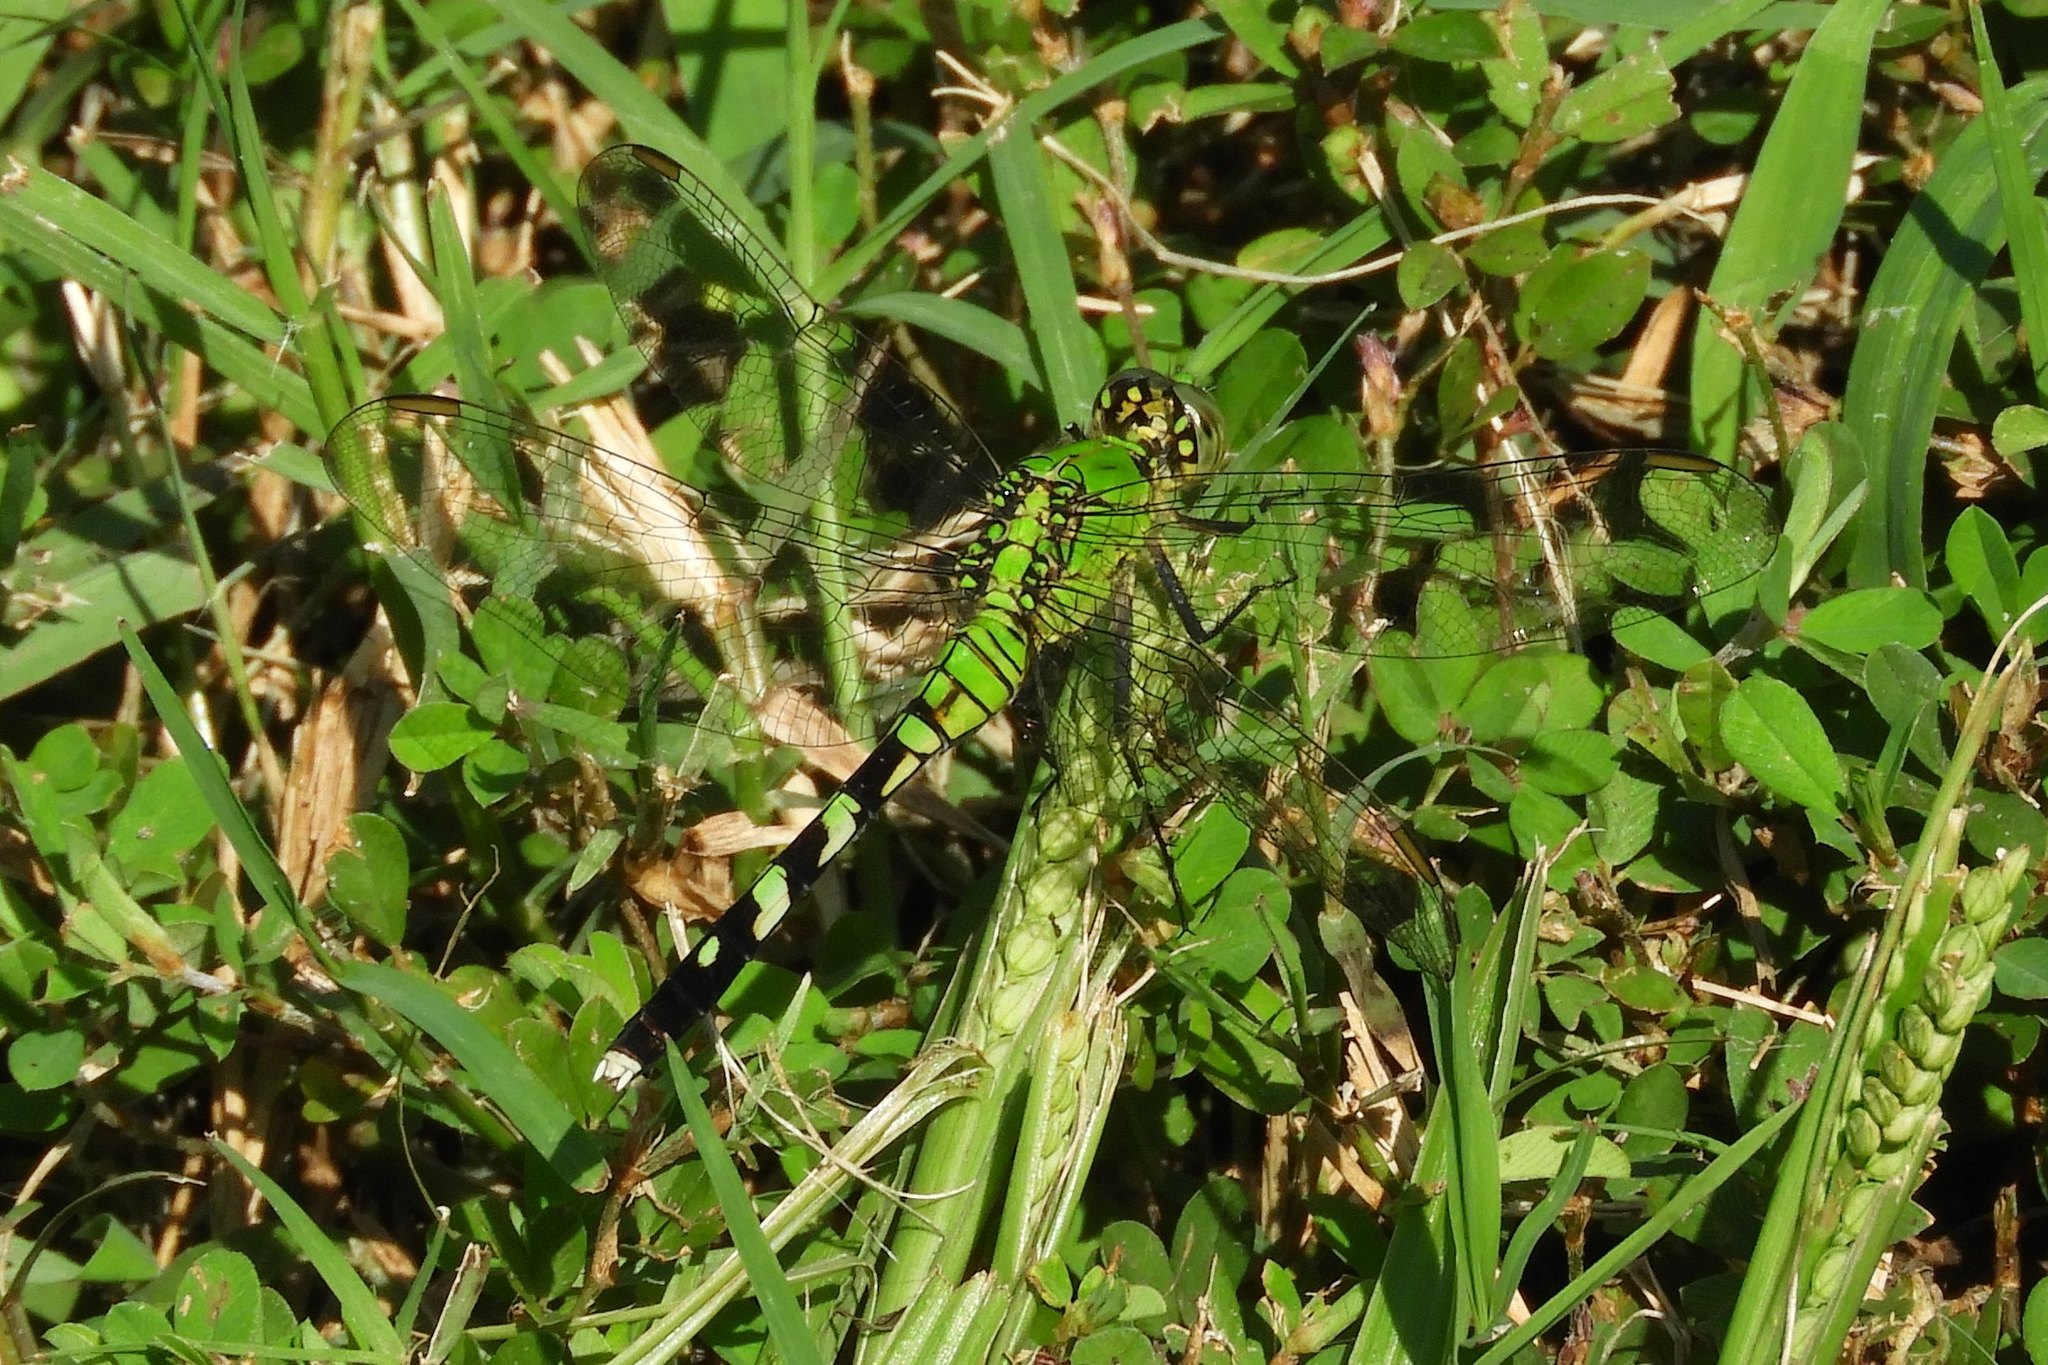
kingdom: Animalia
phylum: Arthropoda
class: Insecta
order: Odonata
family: Libellulidae
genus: Erythemis
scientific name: Erythemis simplicicollis
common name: Eastern pondhawk
